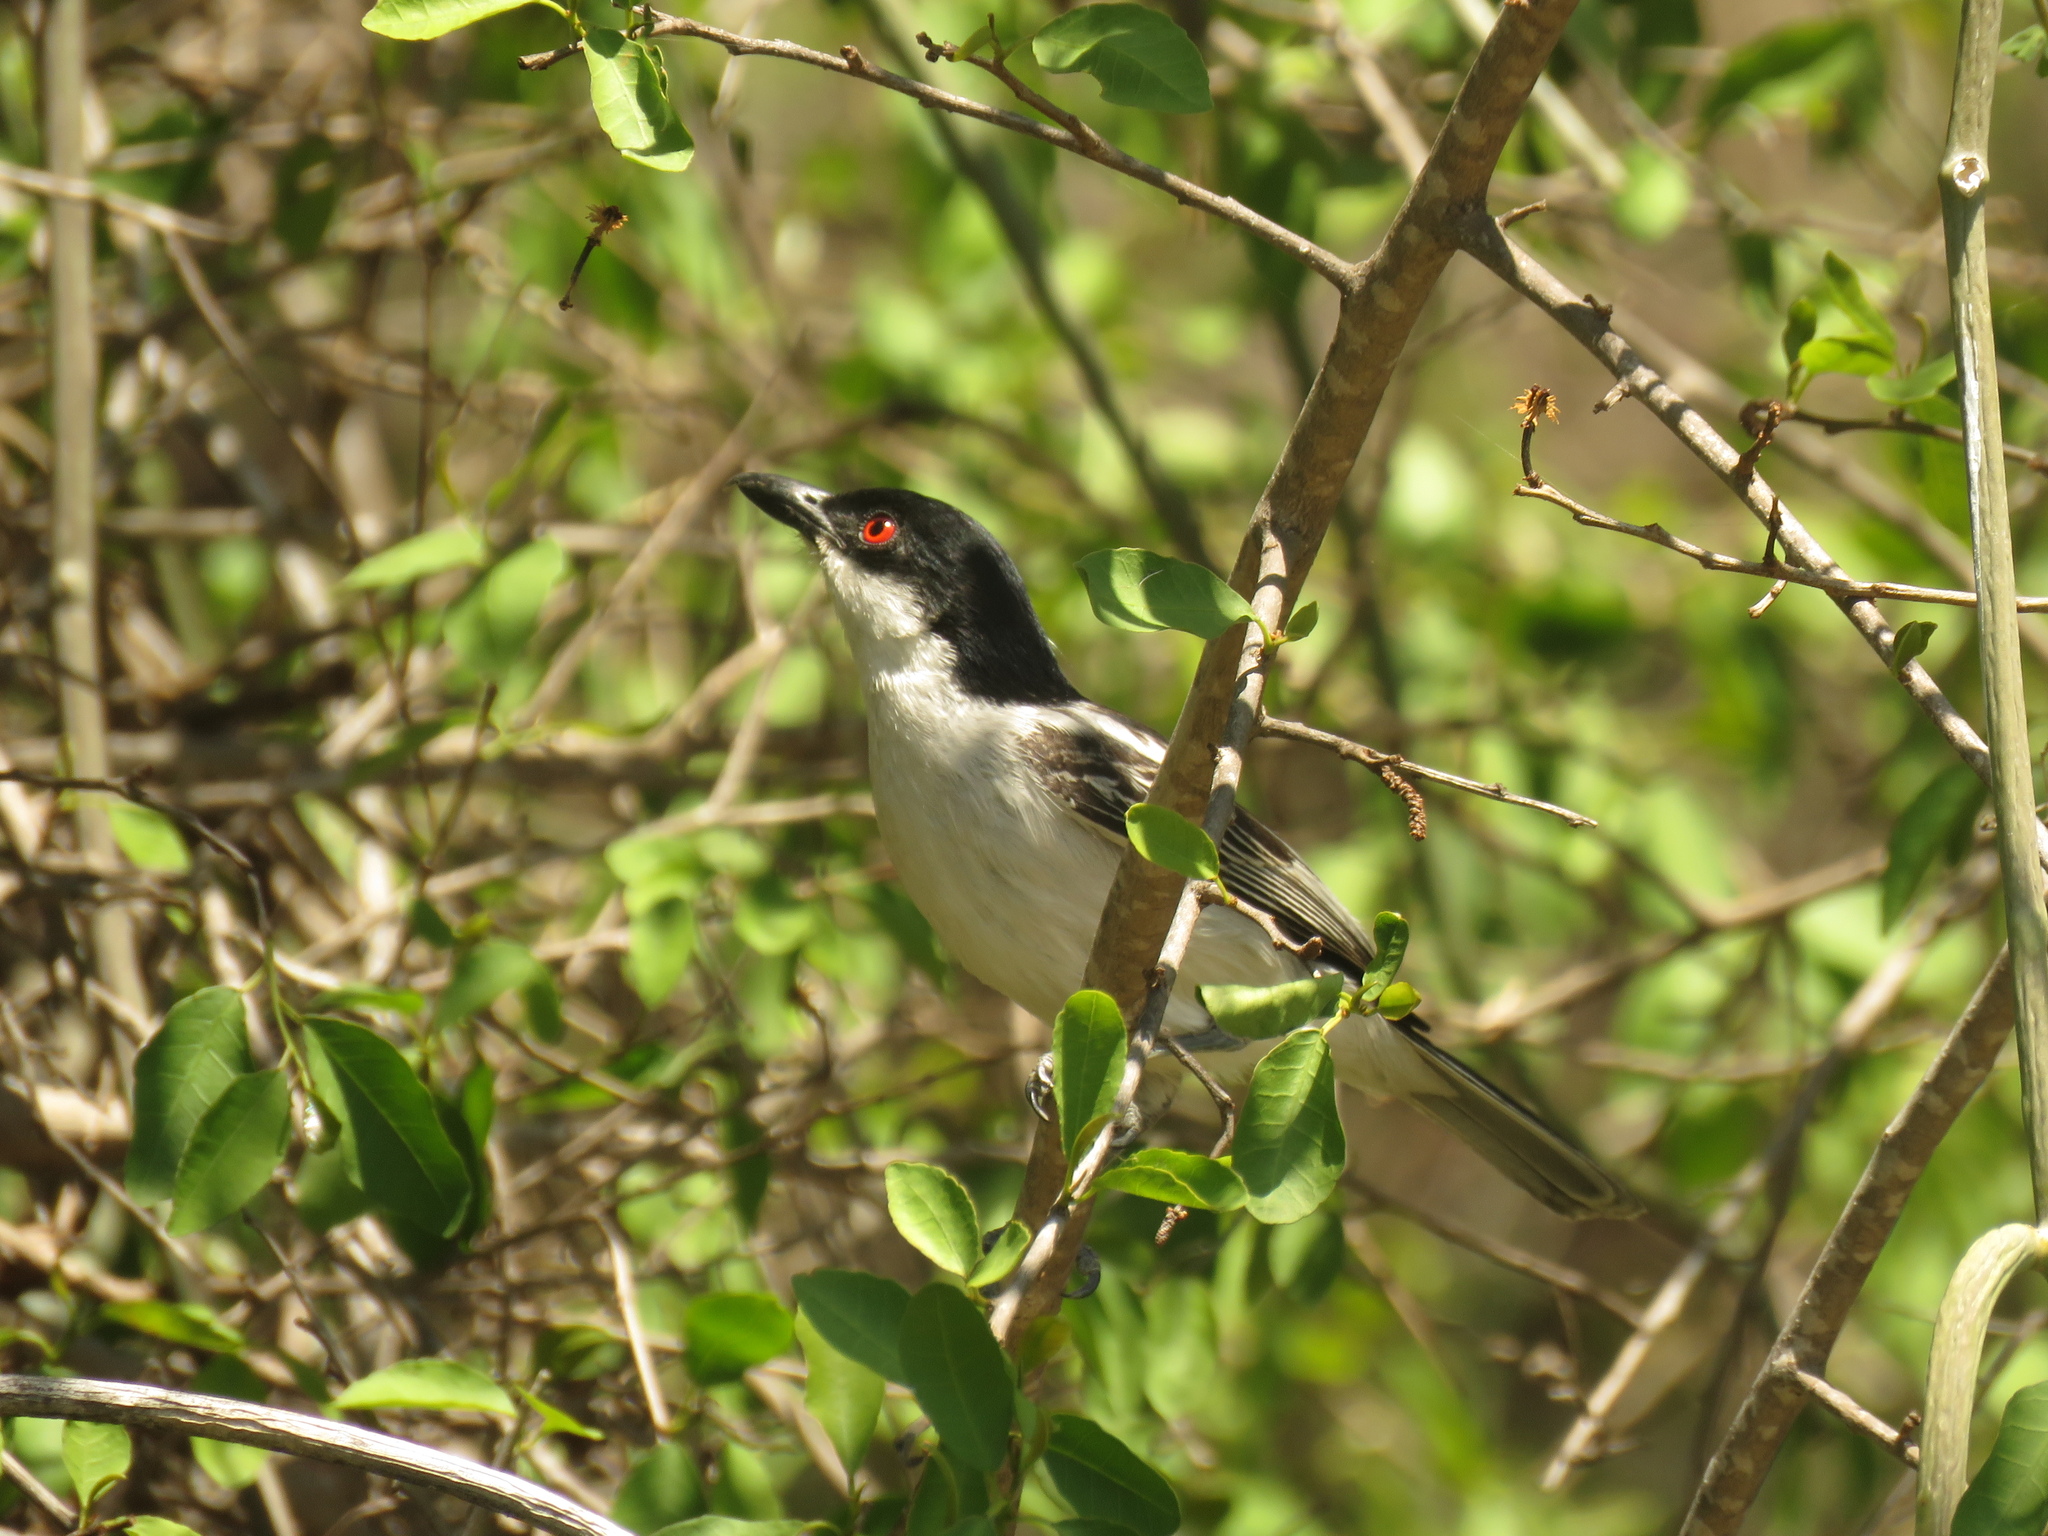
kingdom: Animalia
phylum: Chordata
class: Aves
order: Passeriformes
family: Malaconotidae
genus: Dryoscopus
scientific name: Dryoscopus cubla
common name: Black-backed puffback
